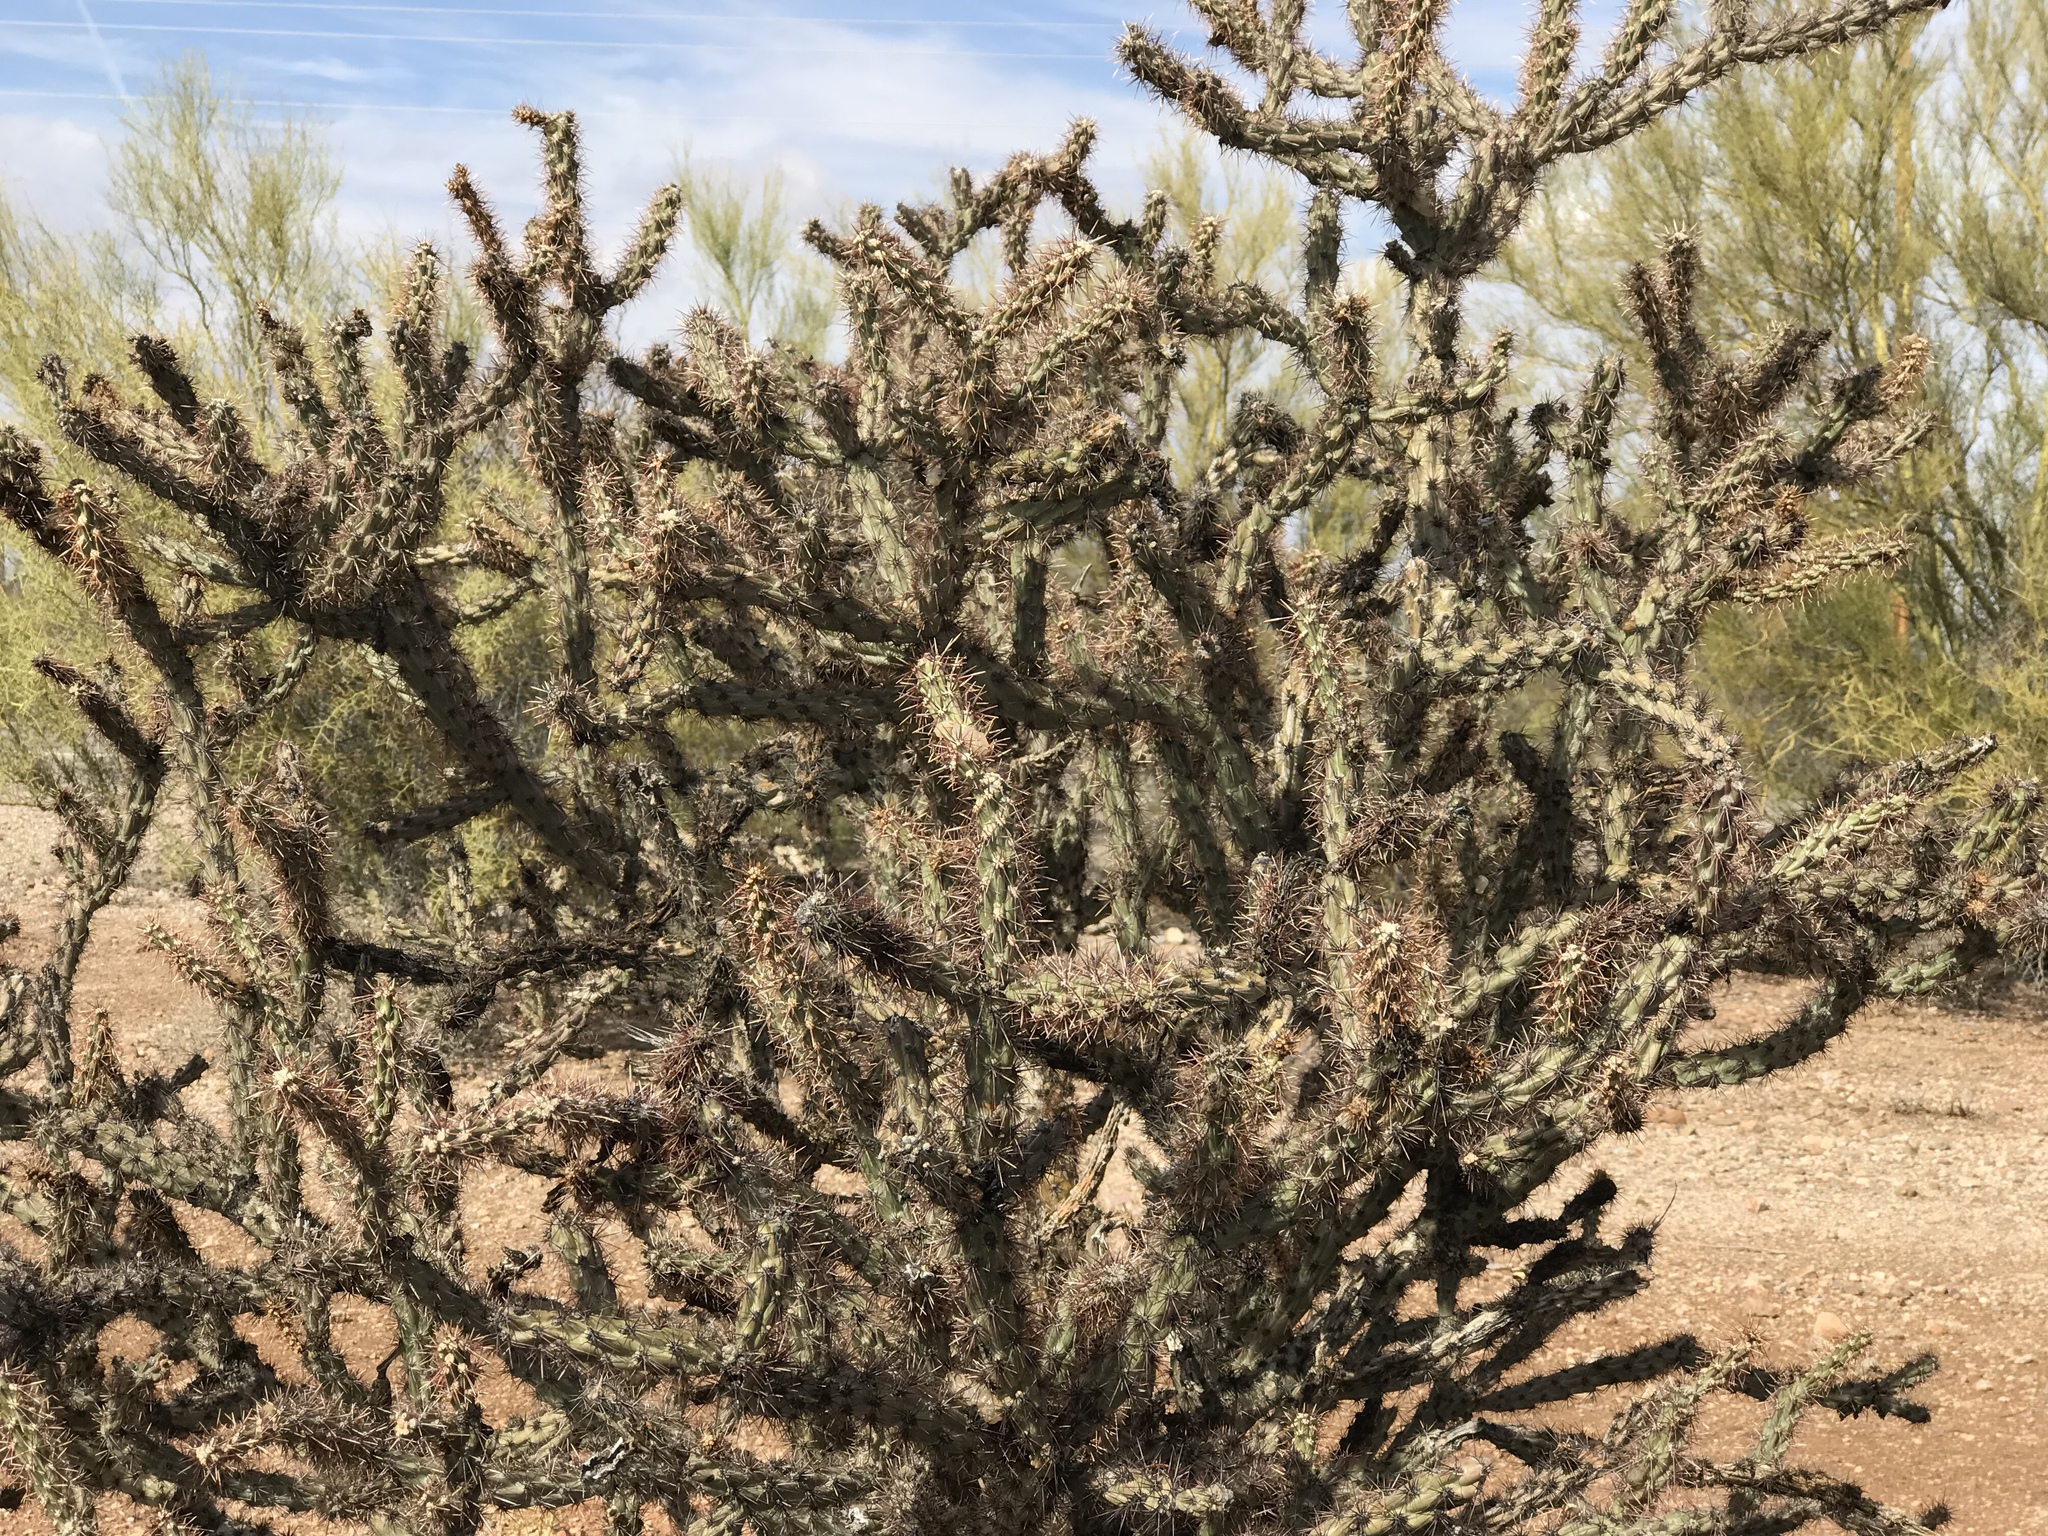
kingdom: Plantae
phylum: Tracheophyta
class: Magnoliopsida
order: Caryophyllales
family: Cactaceae
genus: Cylindropuntia
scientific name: Cylindropuntia acanthocarpa
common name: Buckhorn cholla
